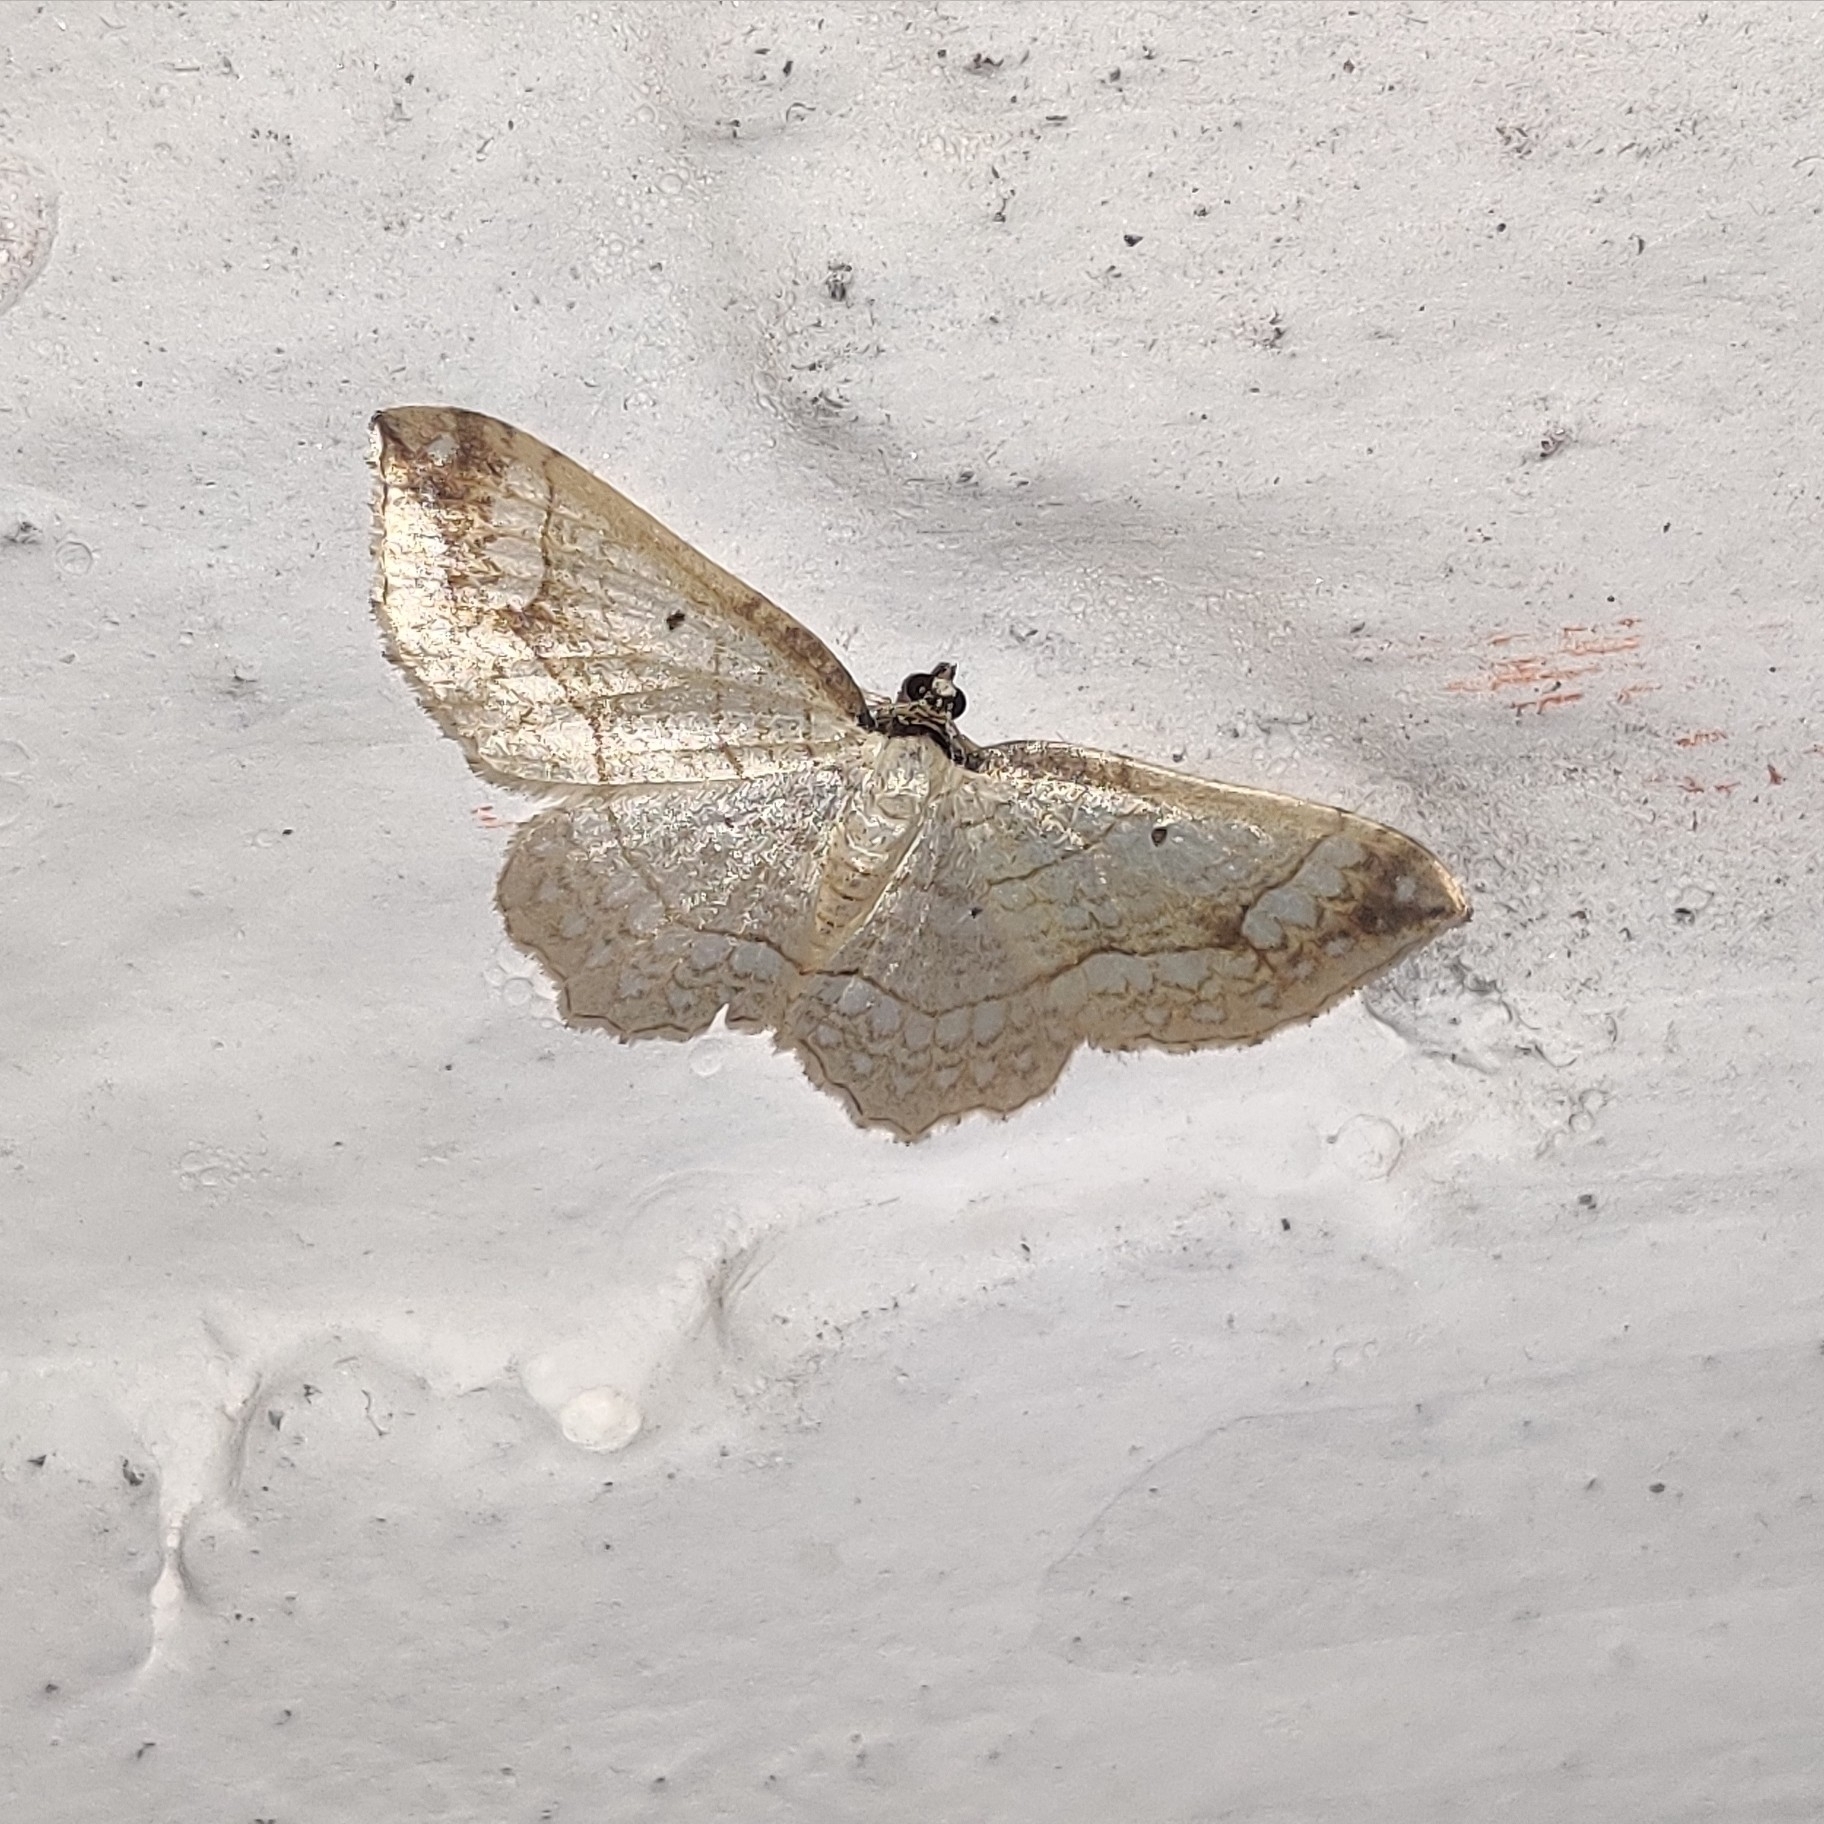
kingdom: Animalia
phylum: Arthropoda
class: Insecta
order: Lepidoptera
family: Geometridae
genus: Laciniodes
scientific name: Laciniodes plurilinearia
